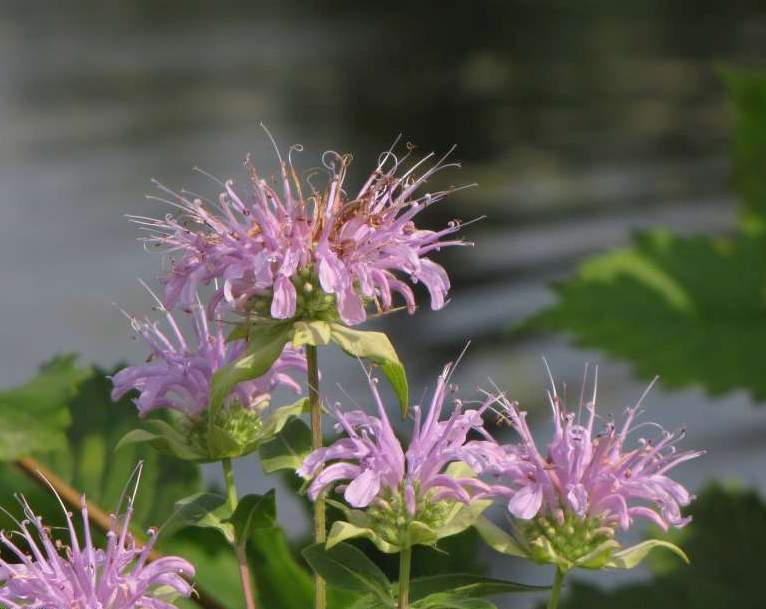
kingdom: Plantae
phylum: Tracheophyta
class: Magnoliopsida
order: Lamiales
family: Lamiaceae
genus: Monarda
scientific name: Monarda fistulosa
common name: Purple beebalm
